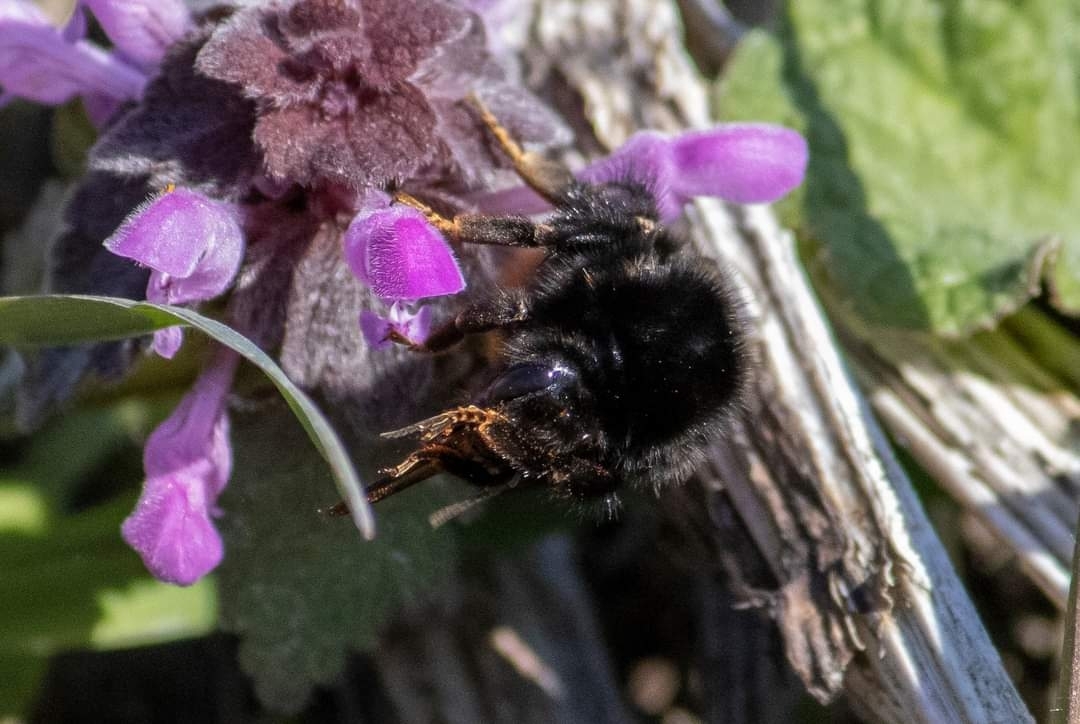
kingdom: Animalia
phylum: Arthropoda
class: Insecta
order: Hymenoptera
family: Apidae
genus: Bombus
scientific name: Bombus lapidarius
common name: Large red-tailed humble-bee
